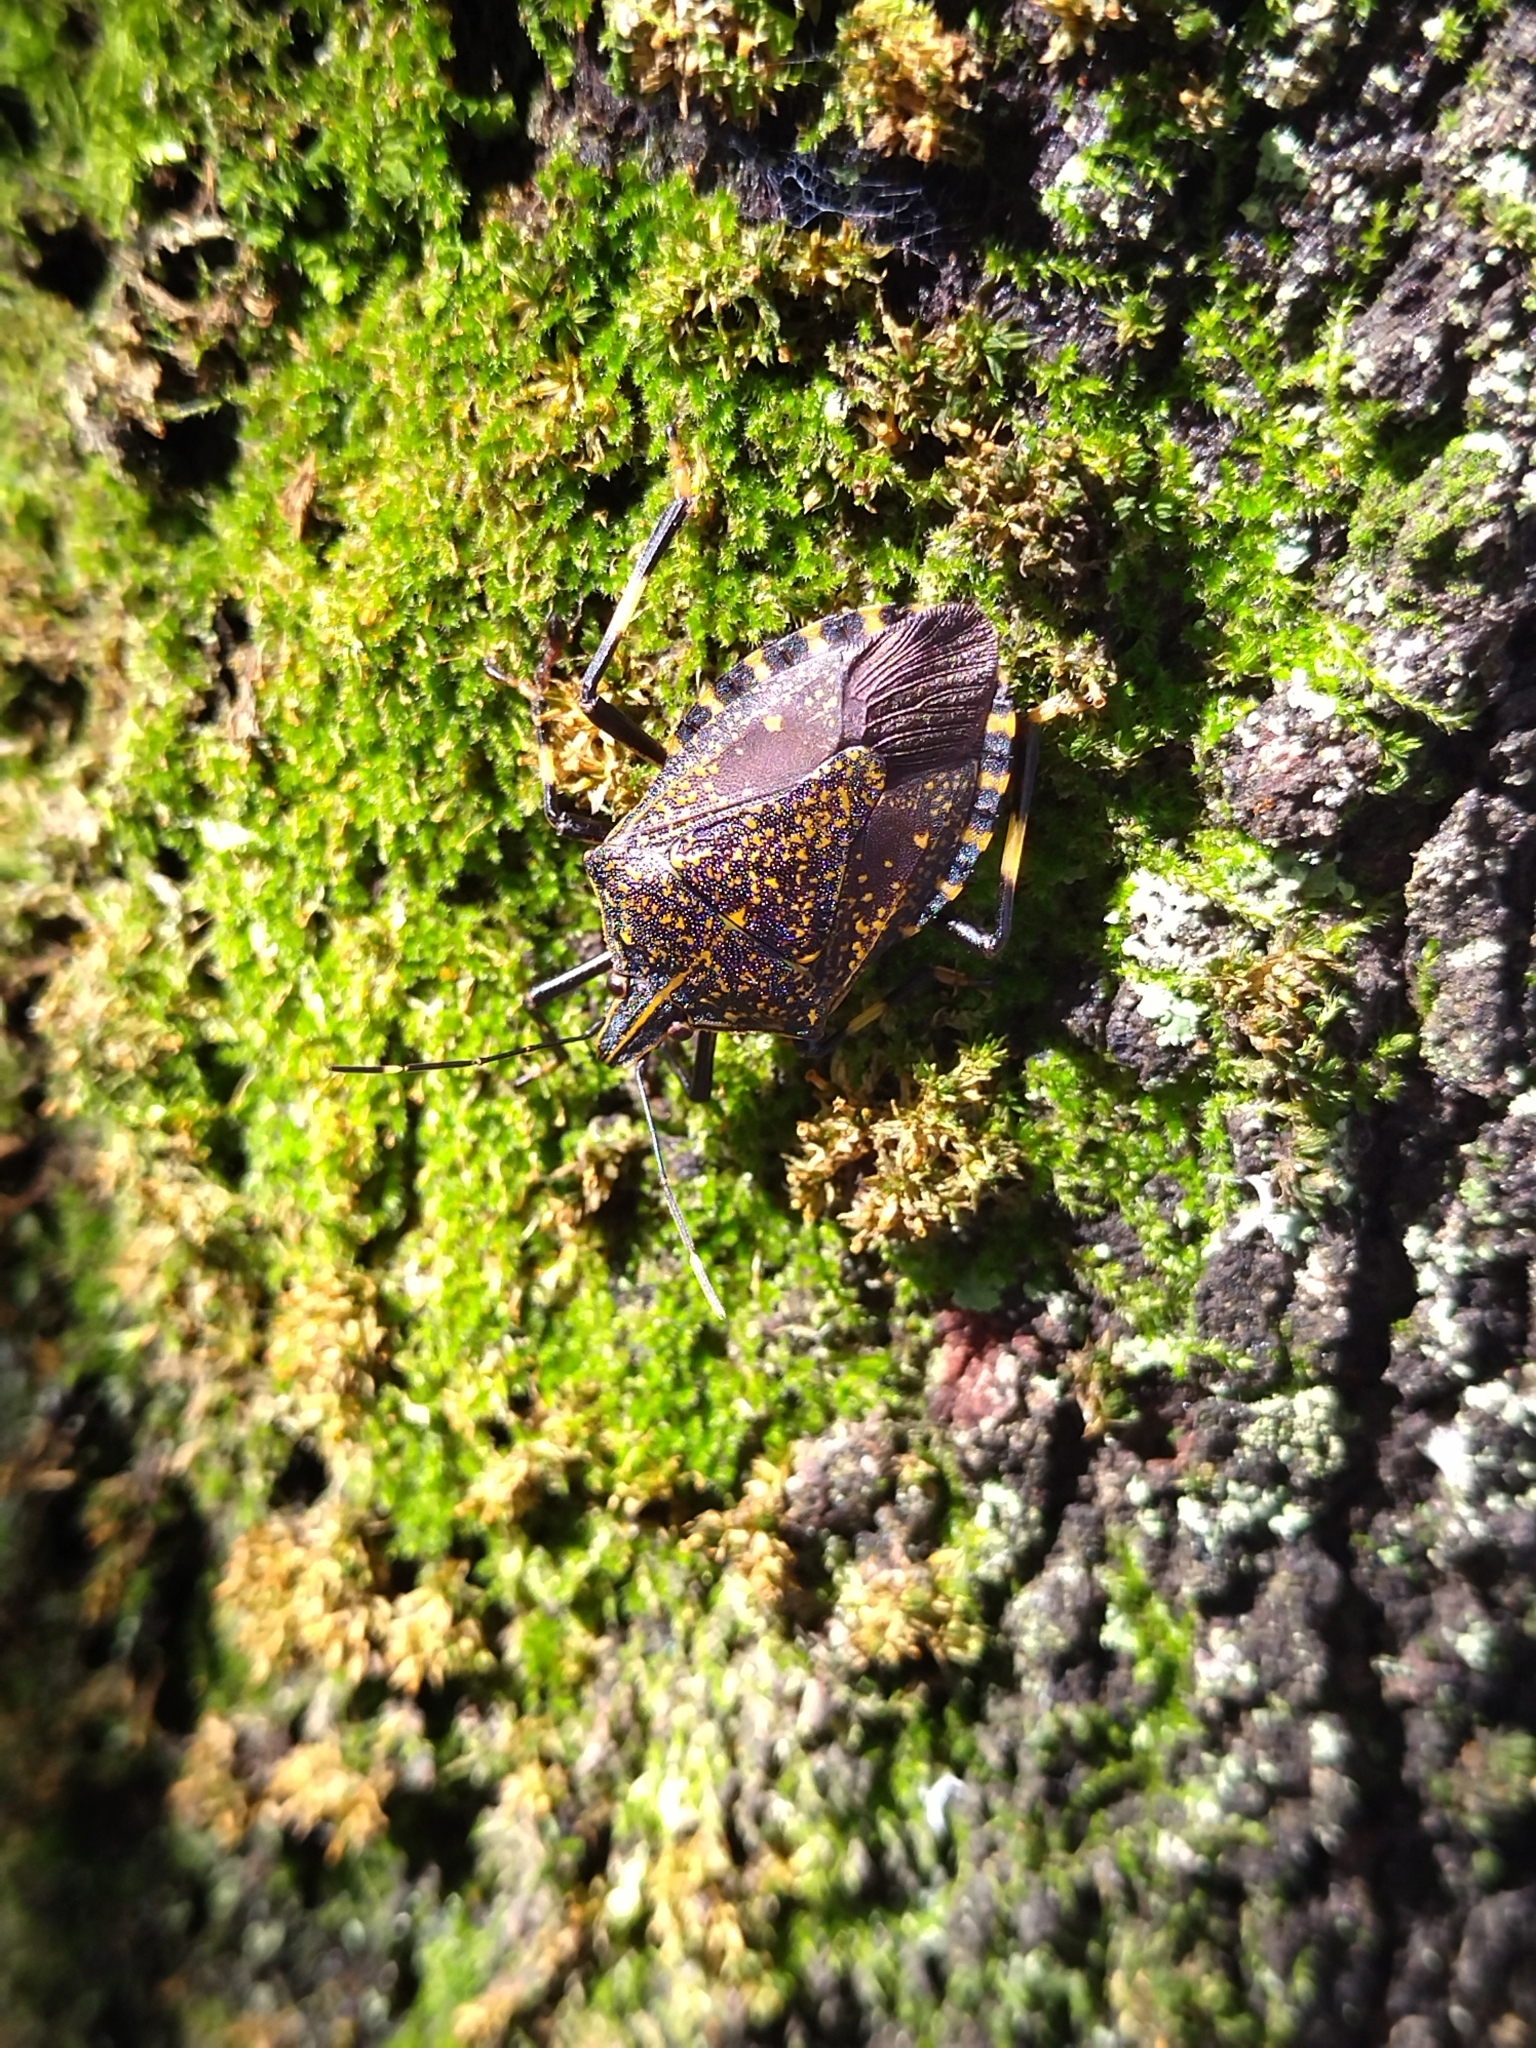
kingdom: Animalia
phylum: Arthropoda
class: Insecta
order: Hemiptera
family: Pentatomidae
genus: Erthesina
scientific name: Erthesina fullo
